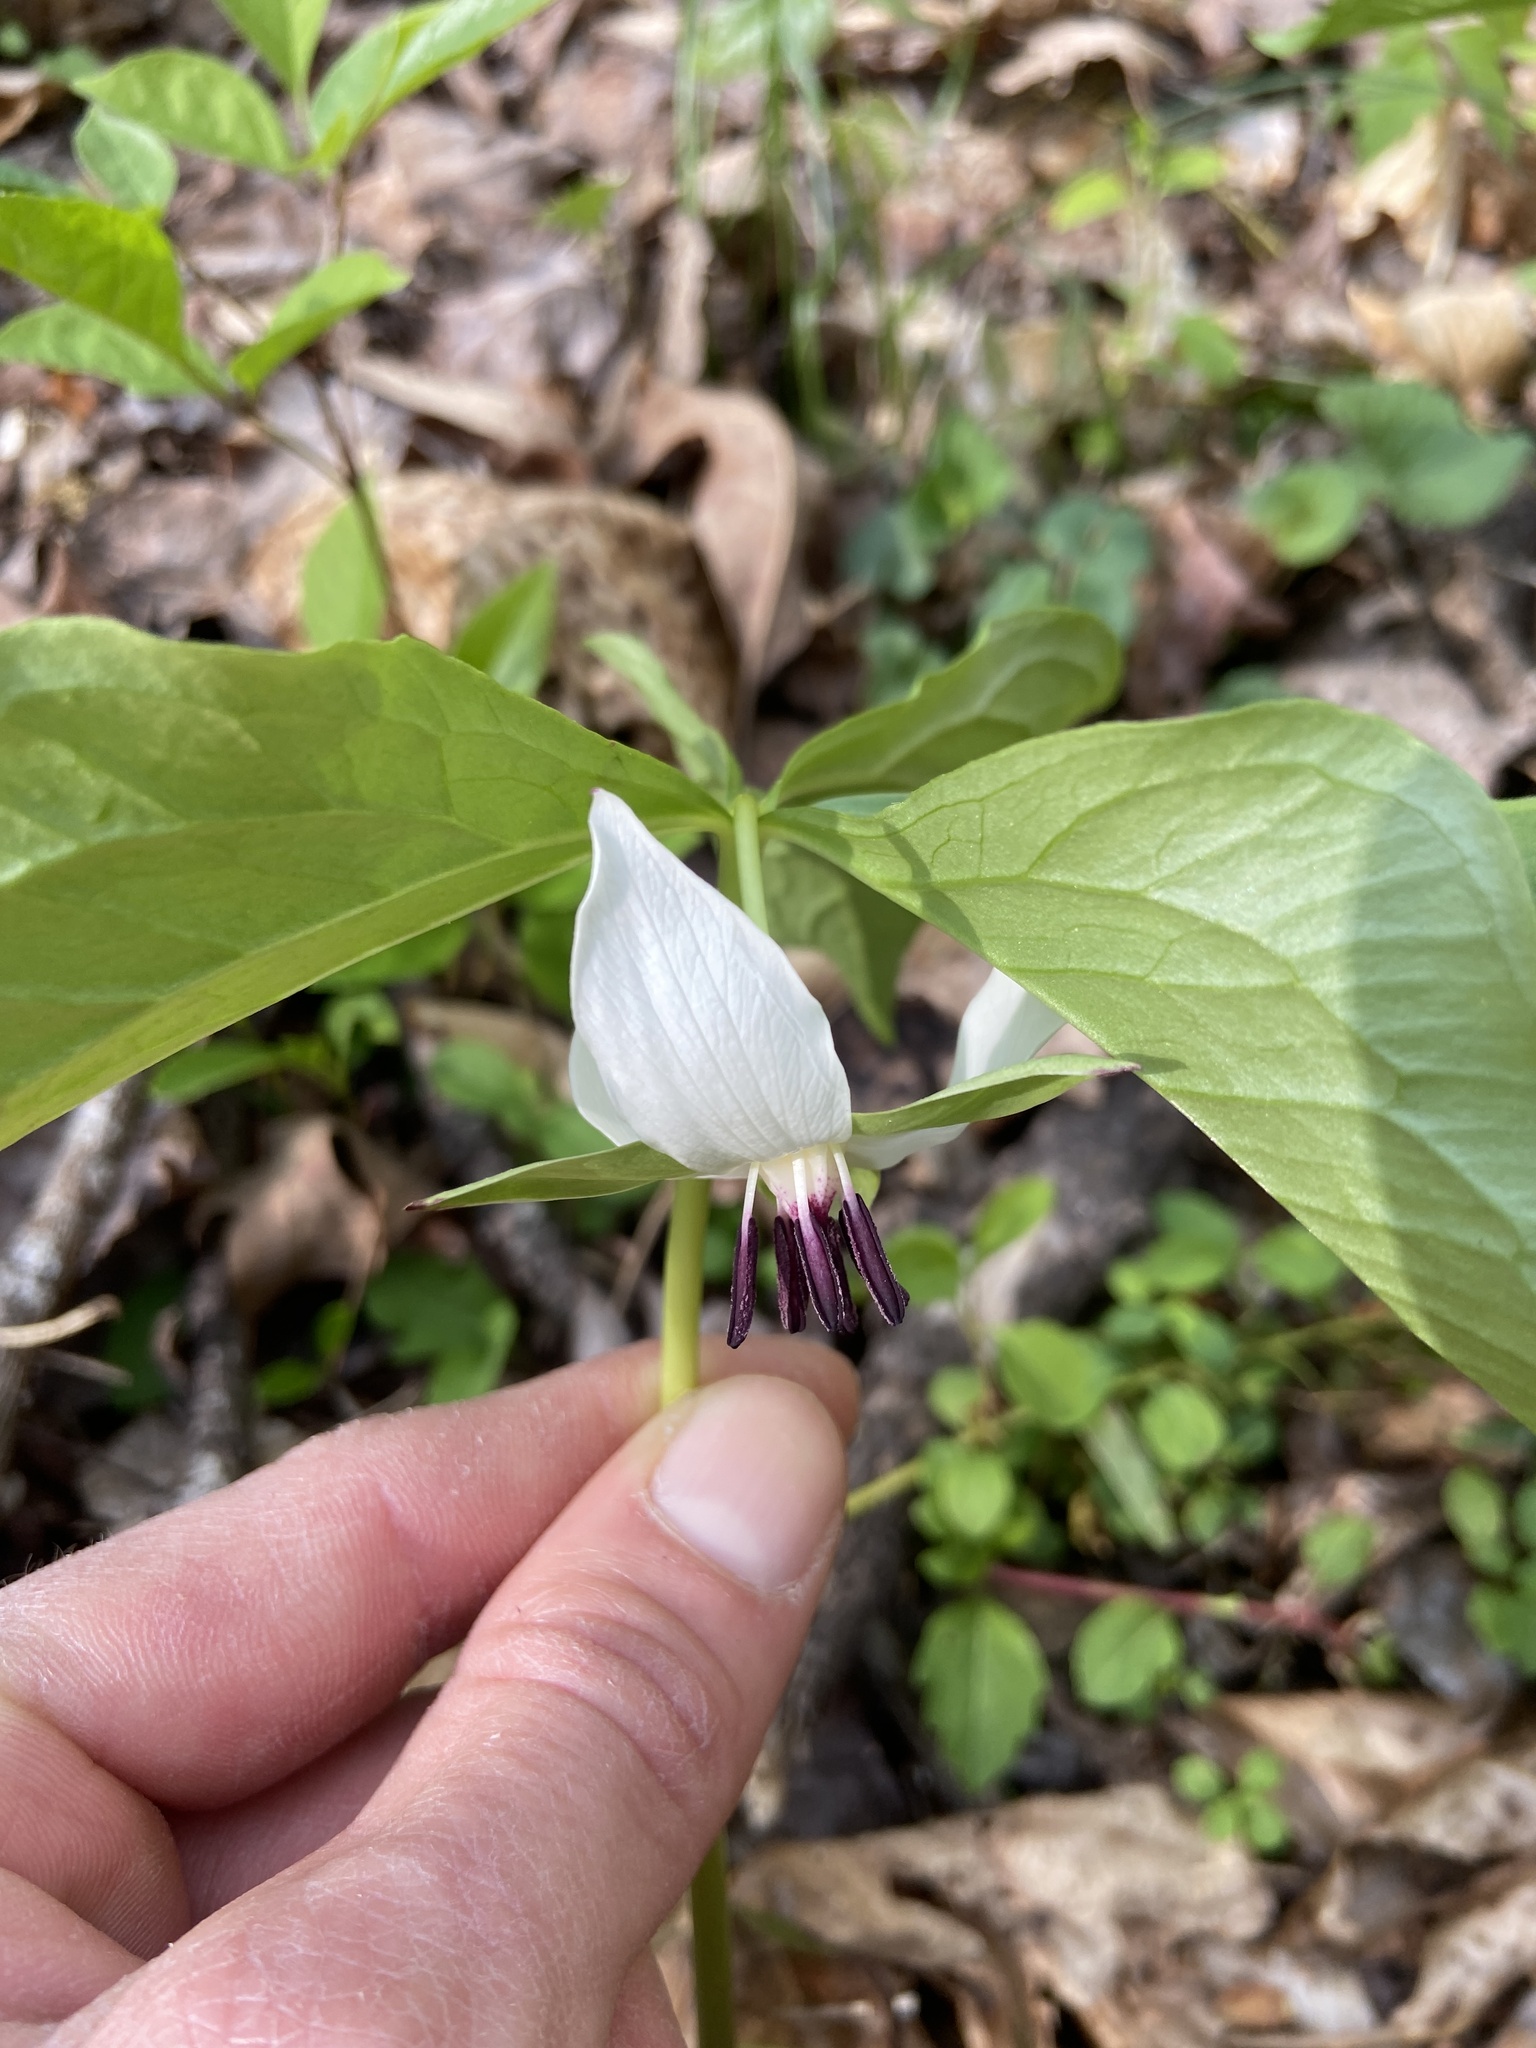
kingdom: Plantae
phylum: Tracheophyta
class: Liliopsida
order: Liliales
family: Melanthiaceae
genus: Trillium
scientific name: Trillium rugelii
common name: Ill-scented trillium
